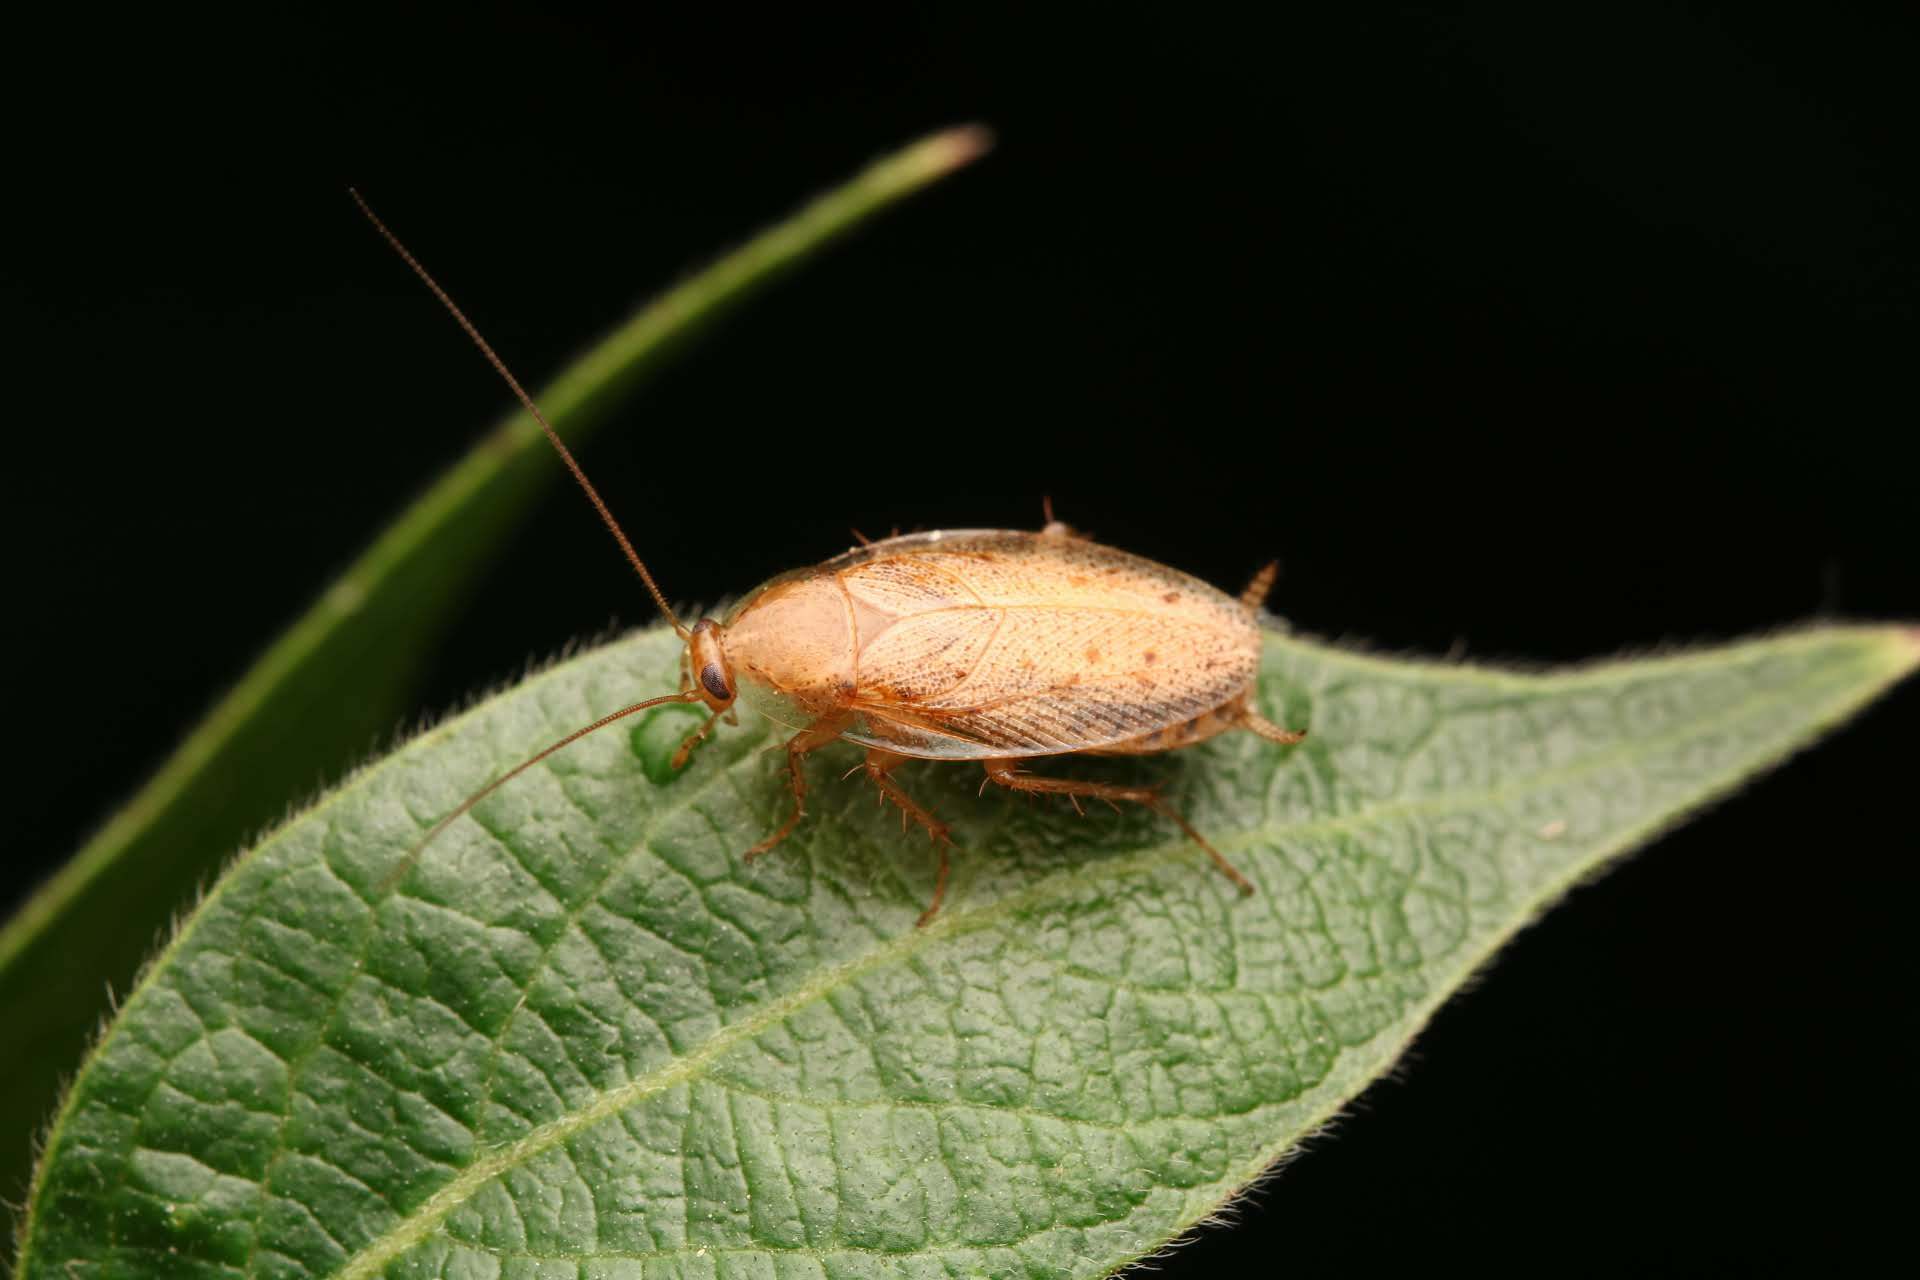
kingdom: Animalia
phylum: Arthropoda
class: Insecta
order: Blattodea
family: Ectobiidae
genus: Ectobius
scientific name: Ectobius pallidus
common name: Tawny cockroach
